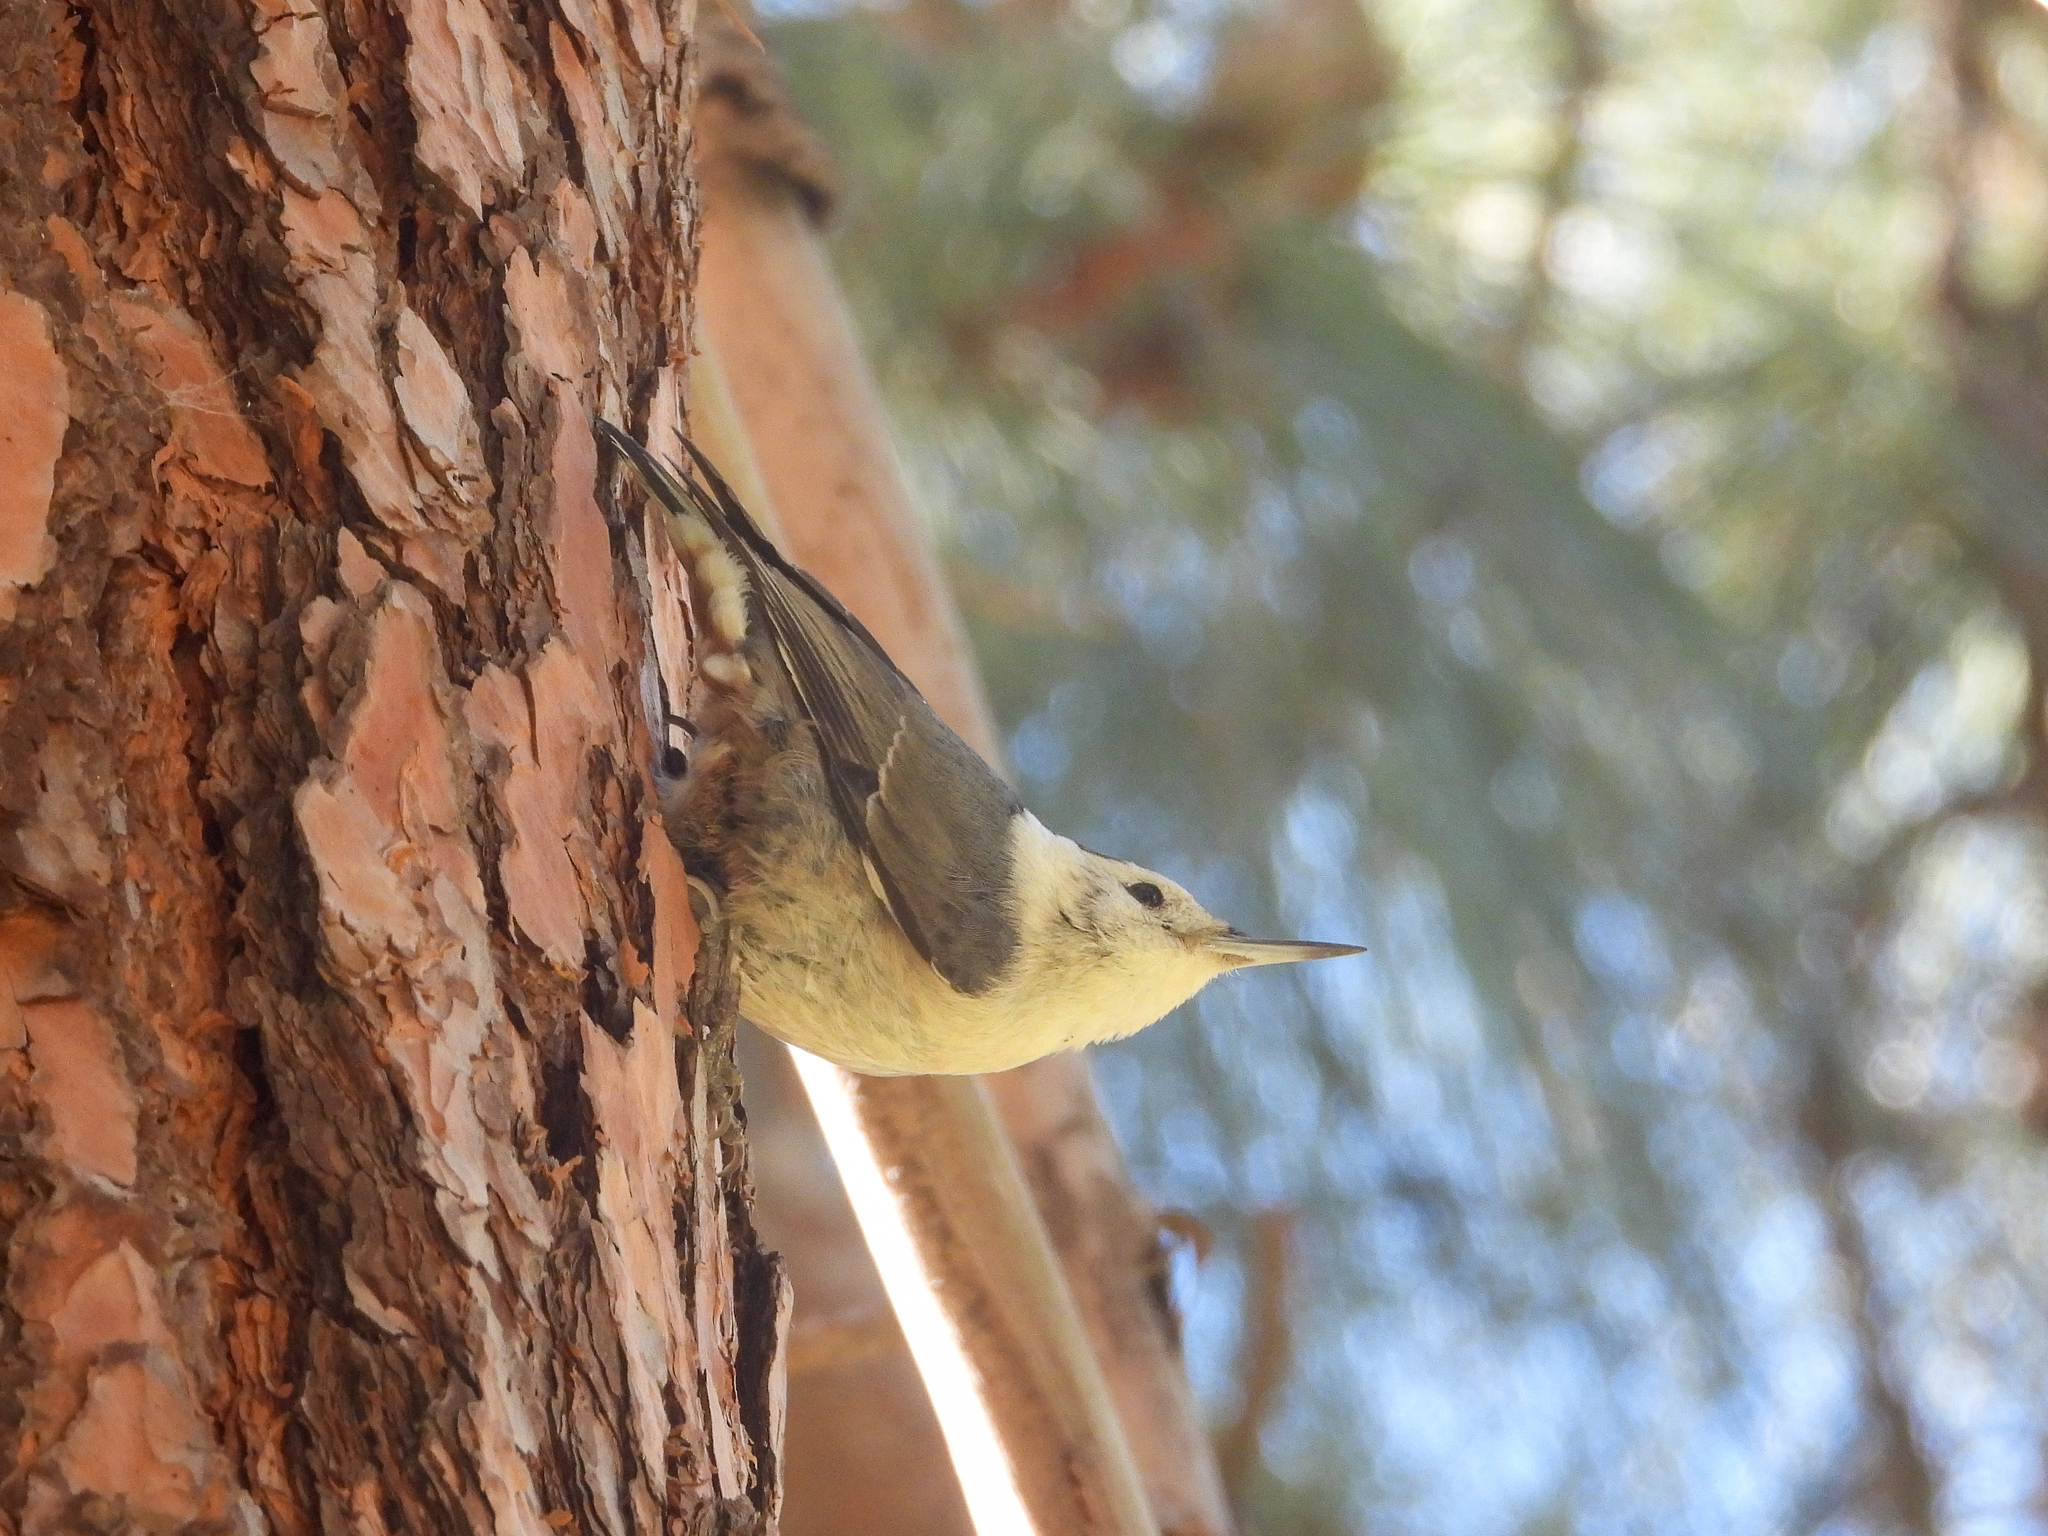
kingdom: Animalia
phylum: Chordata
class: Aves
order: Passeriformes
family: Sittidae
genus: Sitta
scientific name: Sitta carolinensis
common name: White-breasted nuthatch
